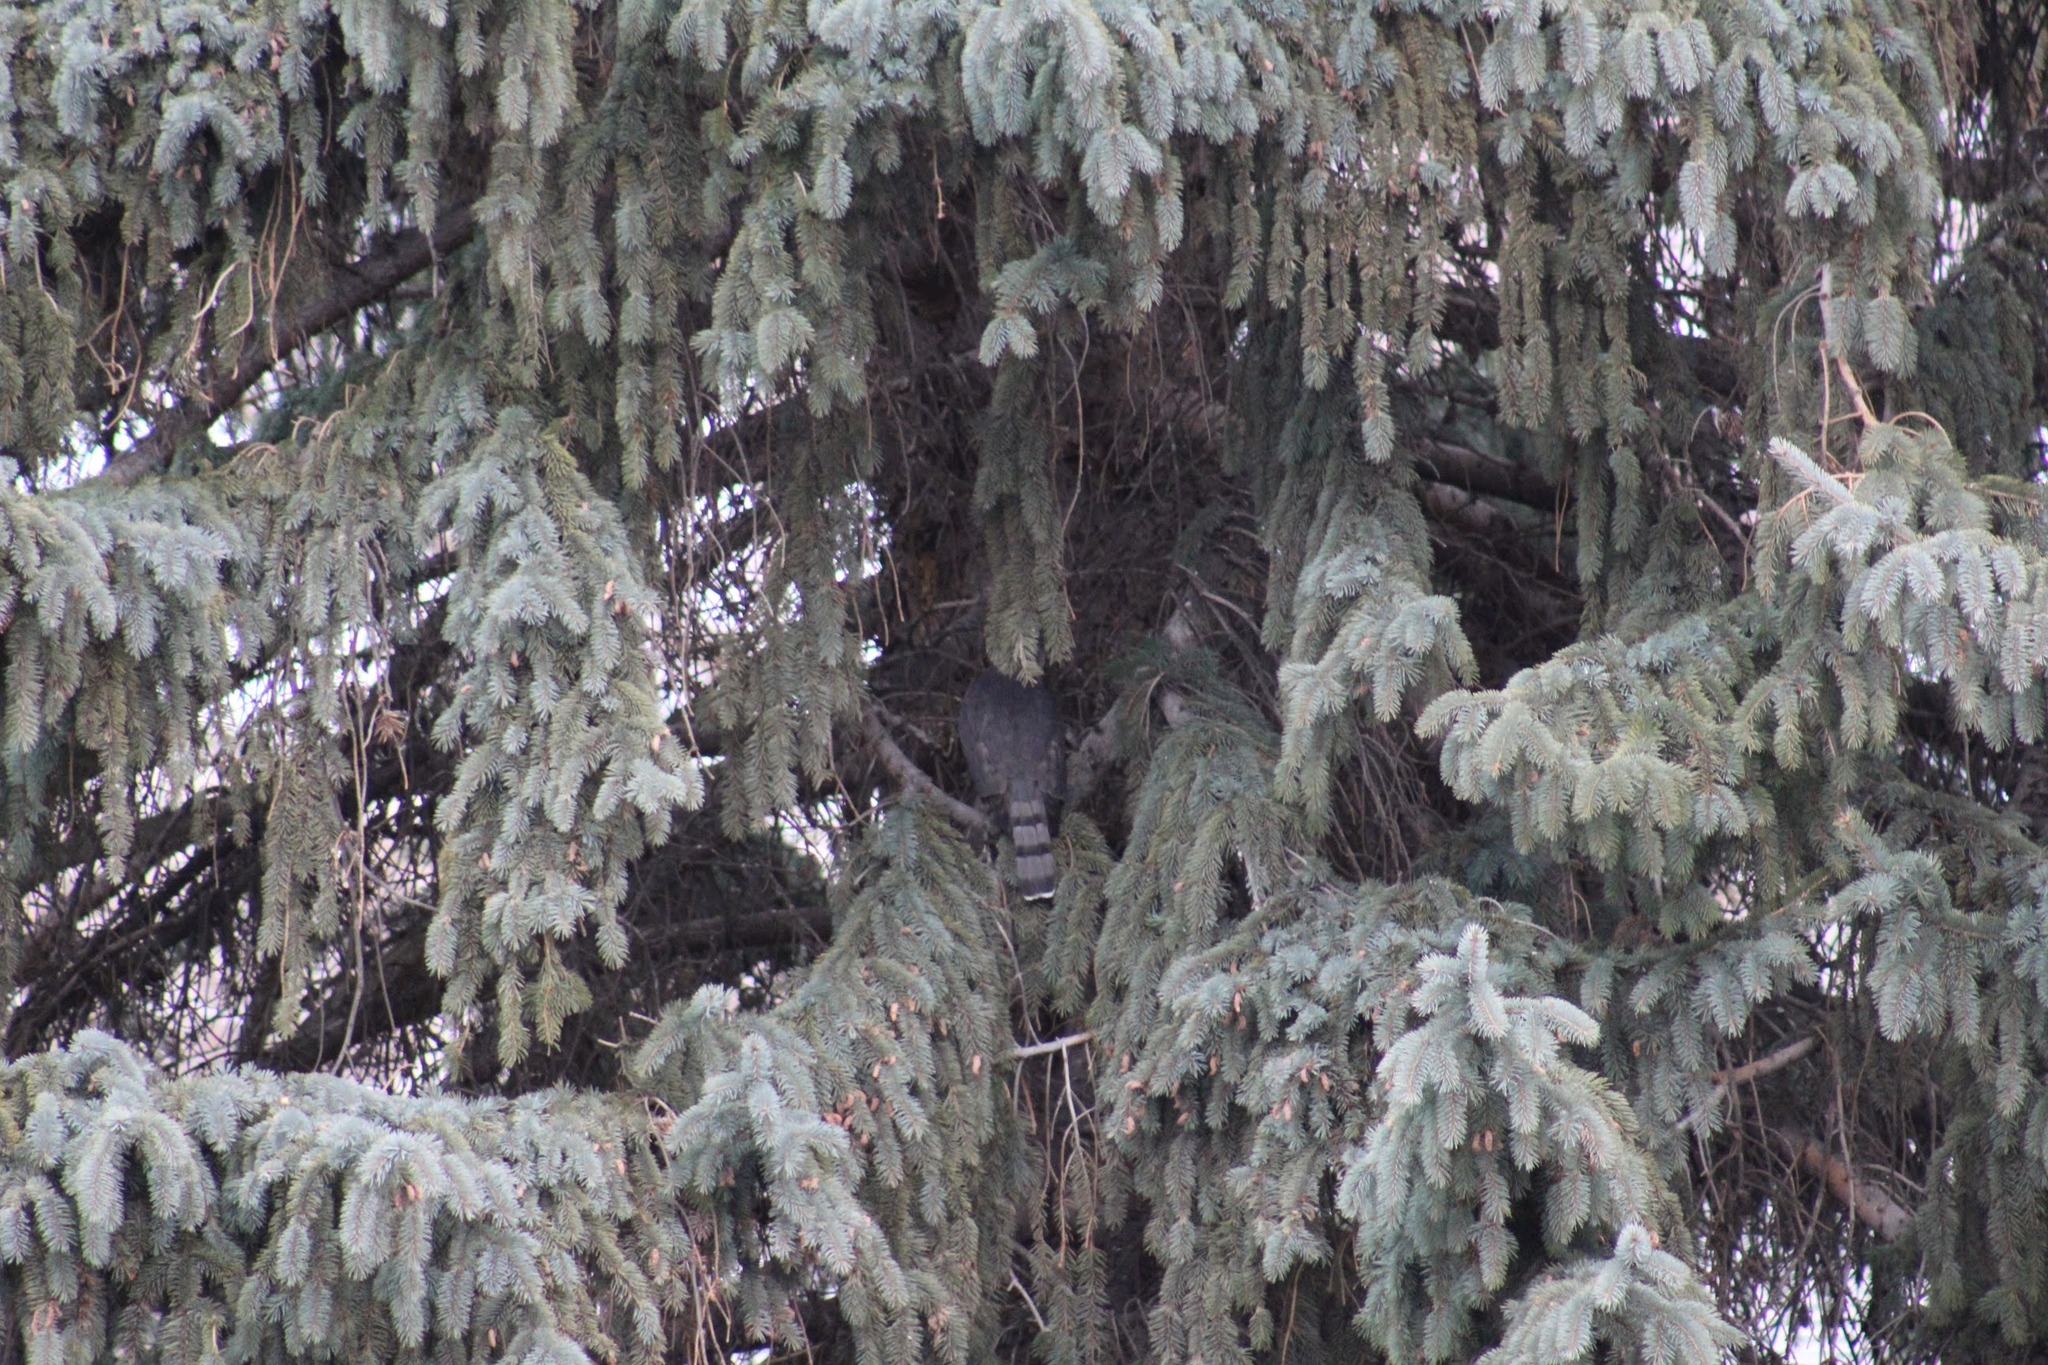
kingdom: Animalia
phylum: Chordata
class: Aves
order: Accipitriformes
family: Accipitridae
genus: Accipiter
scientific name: Accipiter cooperii
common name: Cooper's hawk
